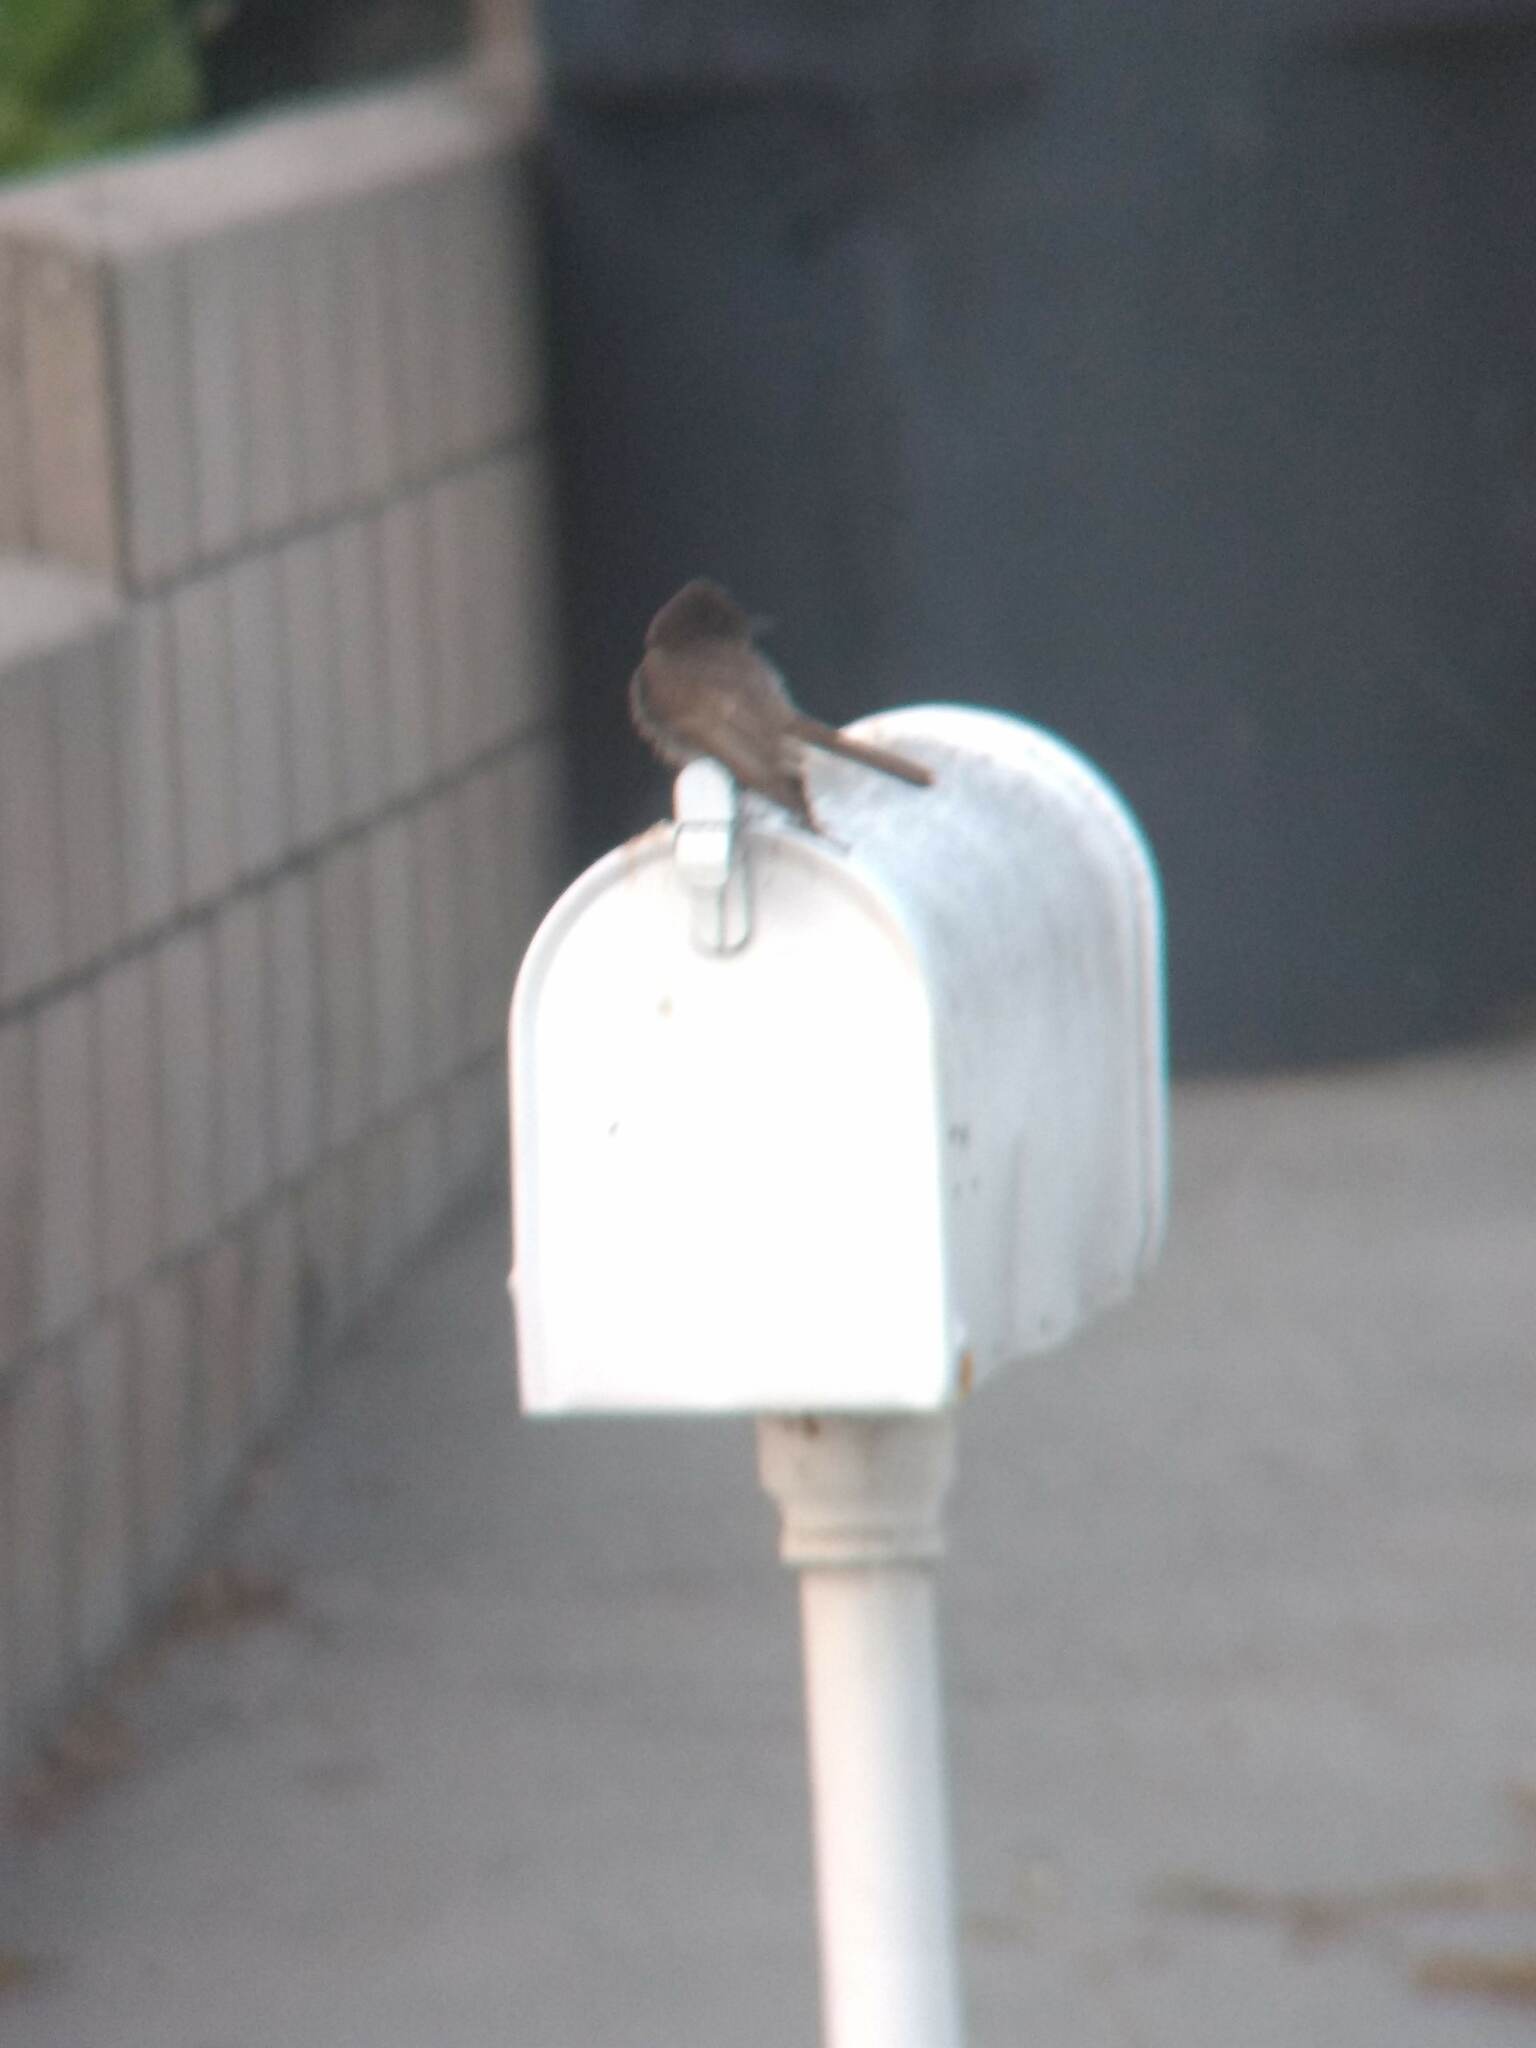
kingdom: Animalia
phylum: Chordata
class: Aves
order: Passeriformes
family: Tyrannidae
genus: Sayornis
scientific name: Sayornis nigricans
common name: Black phoebe
